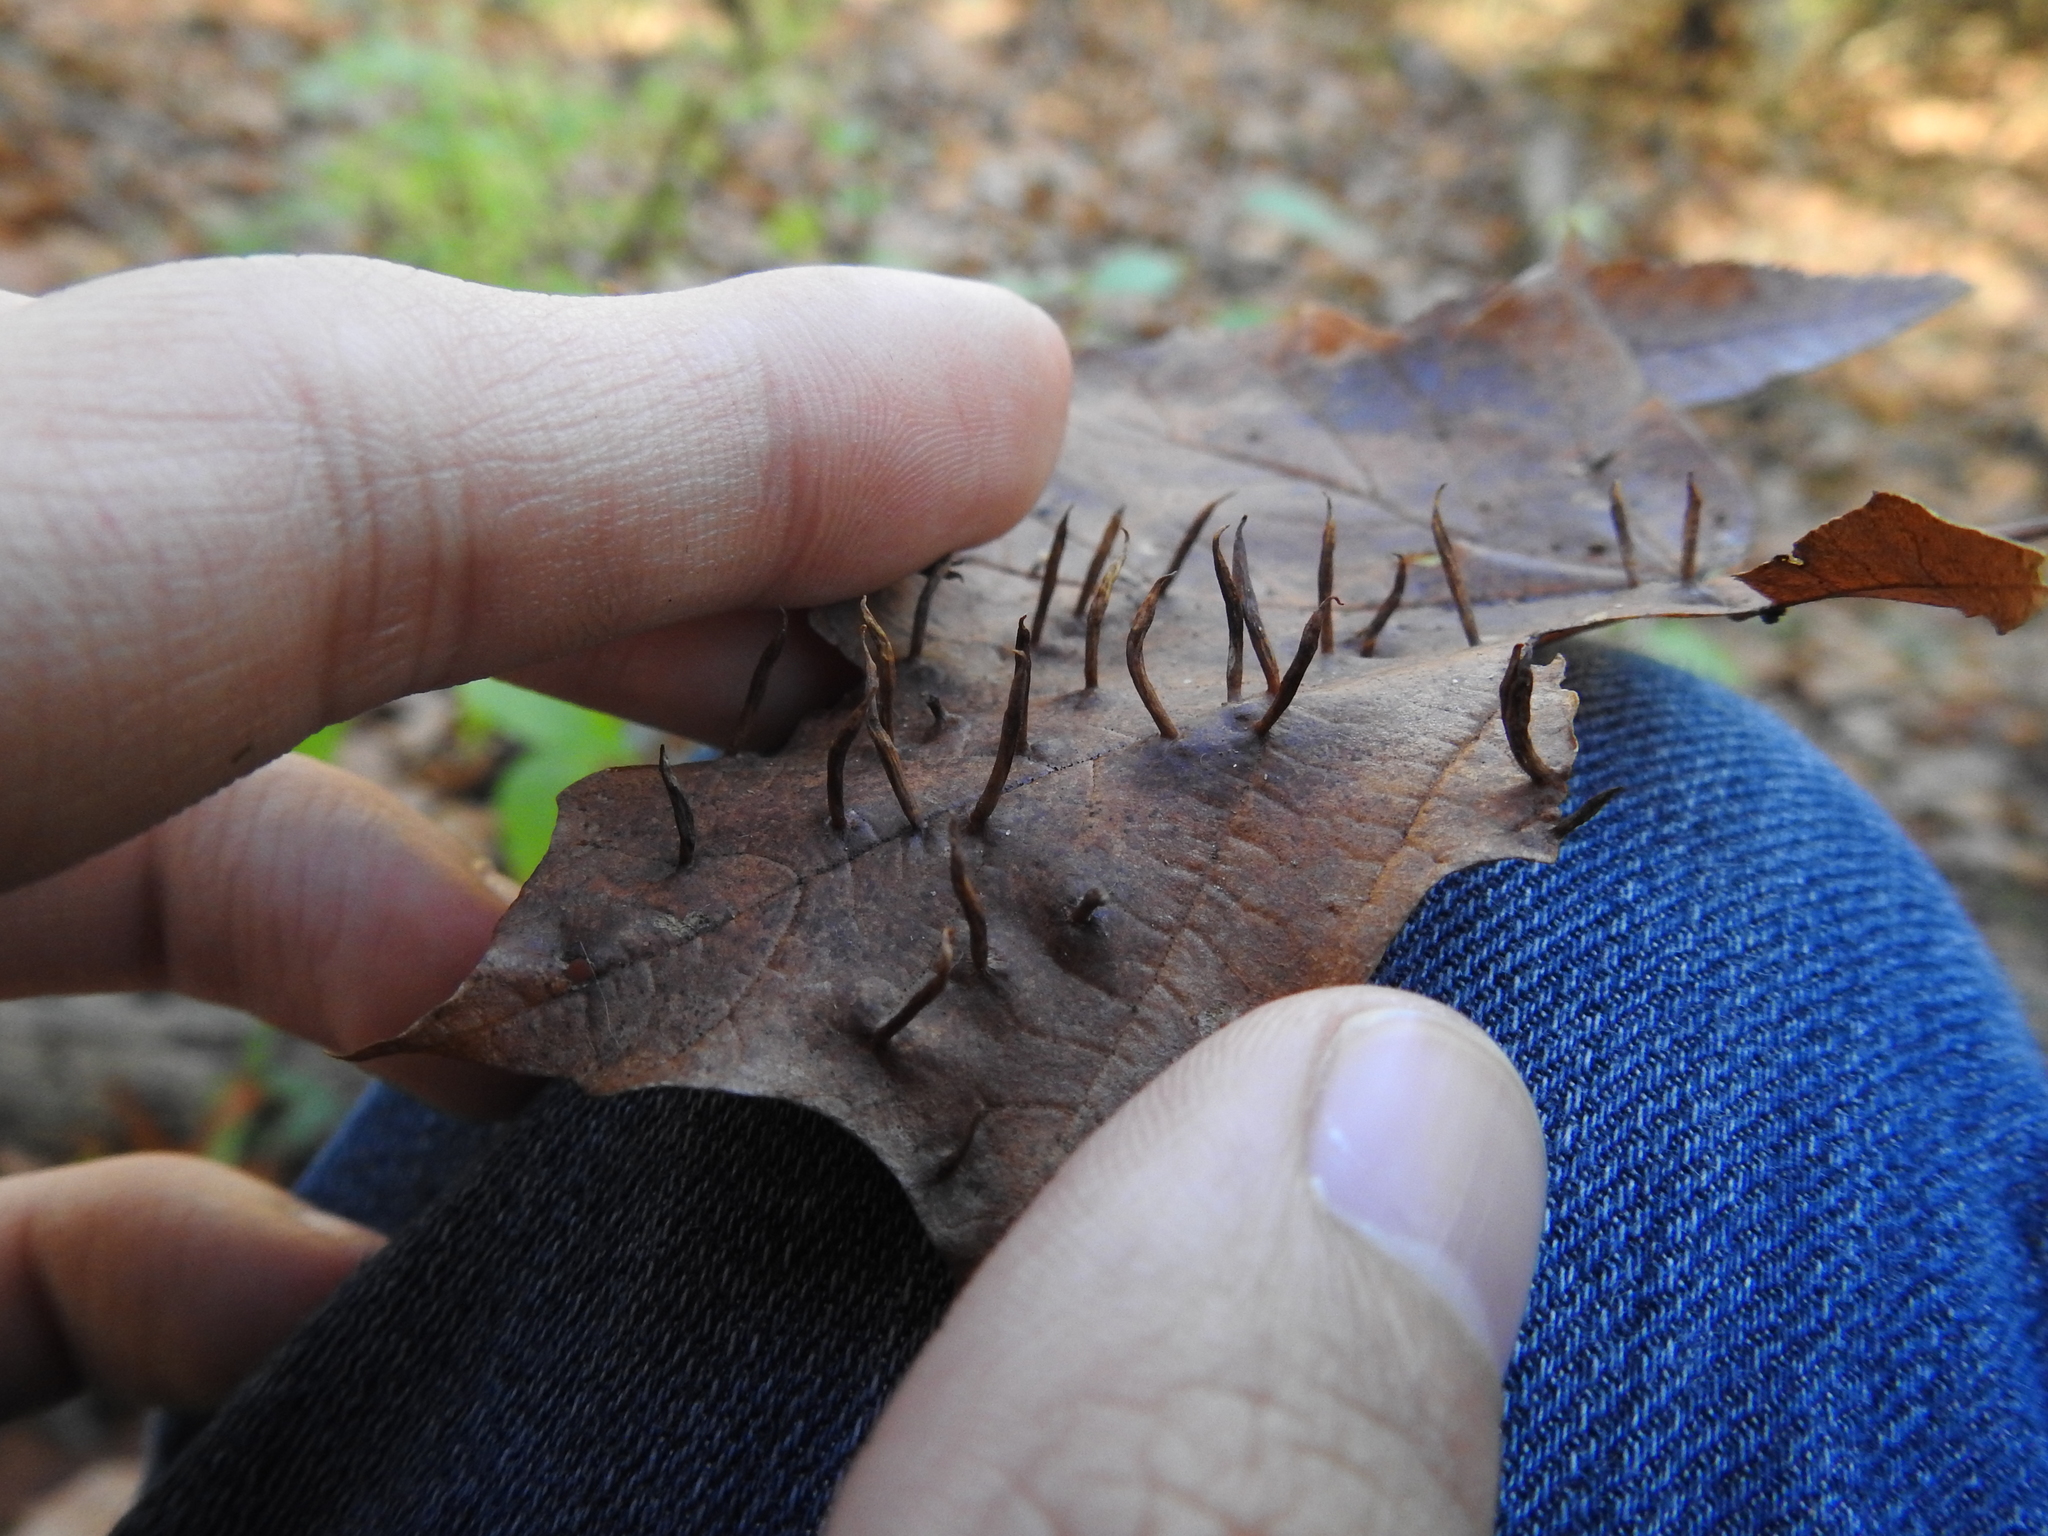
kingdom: Animalia
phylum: Arthropoda
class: Arachnida
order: Trombidiformes
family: Eriophyidae
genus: Vasates
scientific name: Vasates aceriscrumena
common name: Maple spindle gall mite
